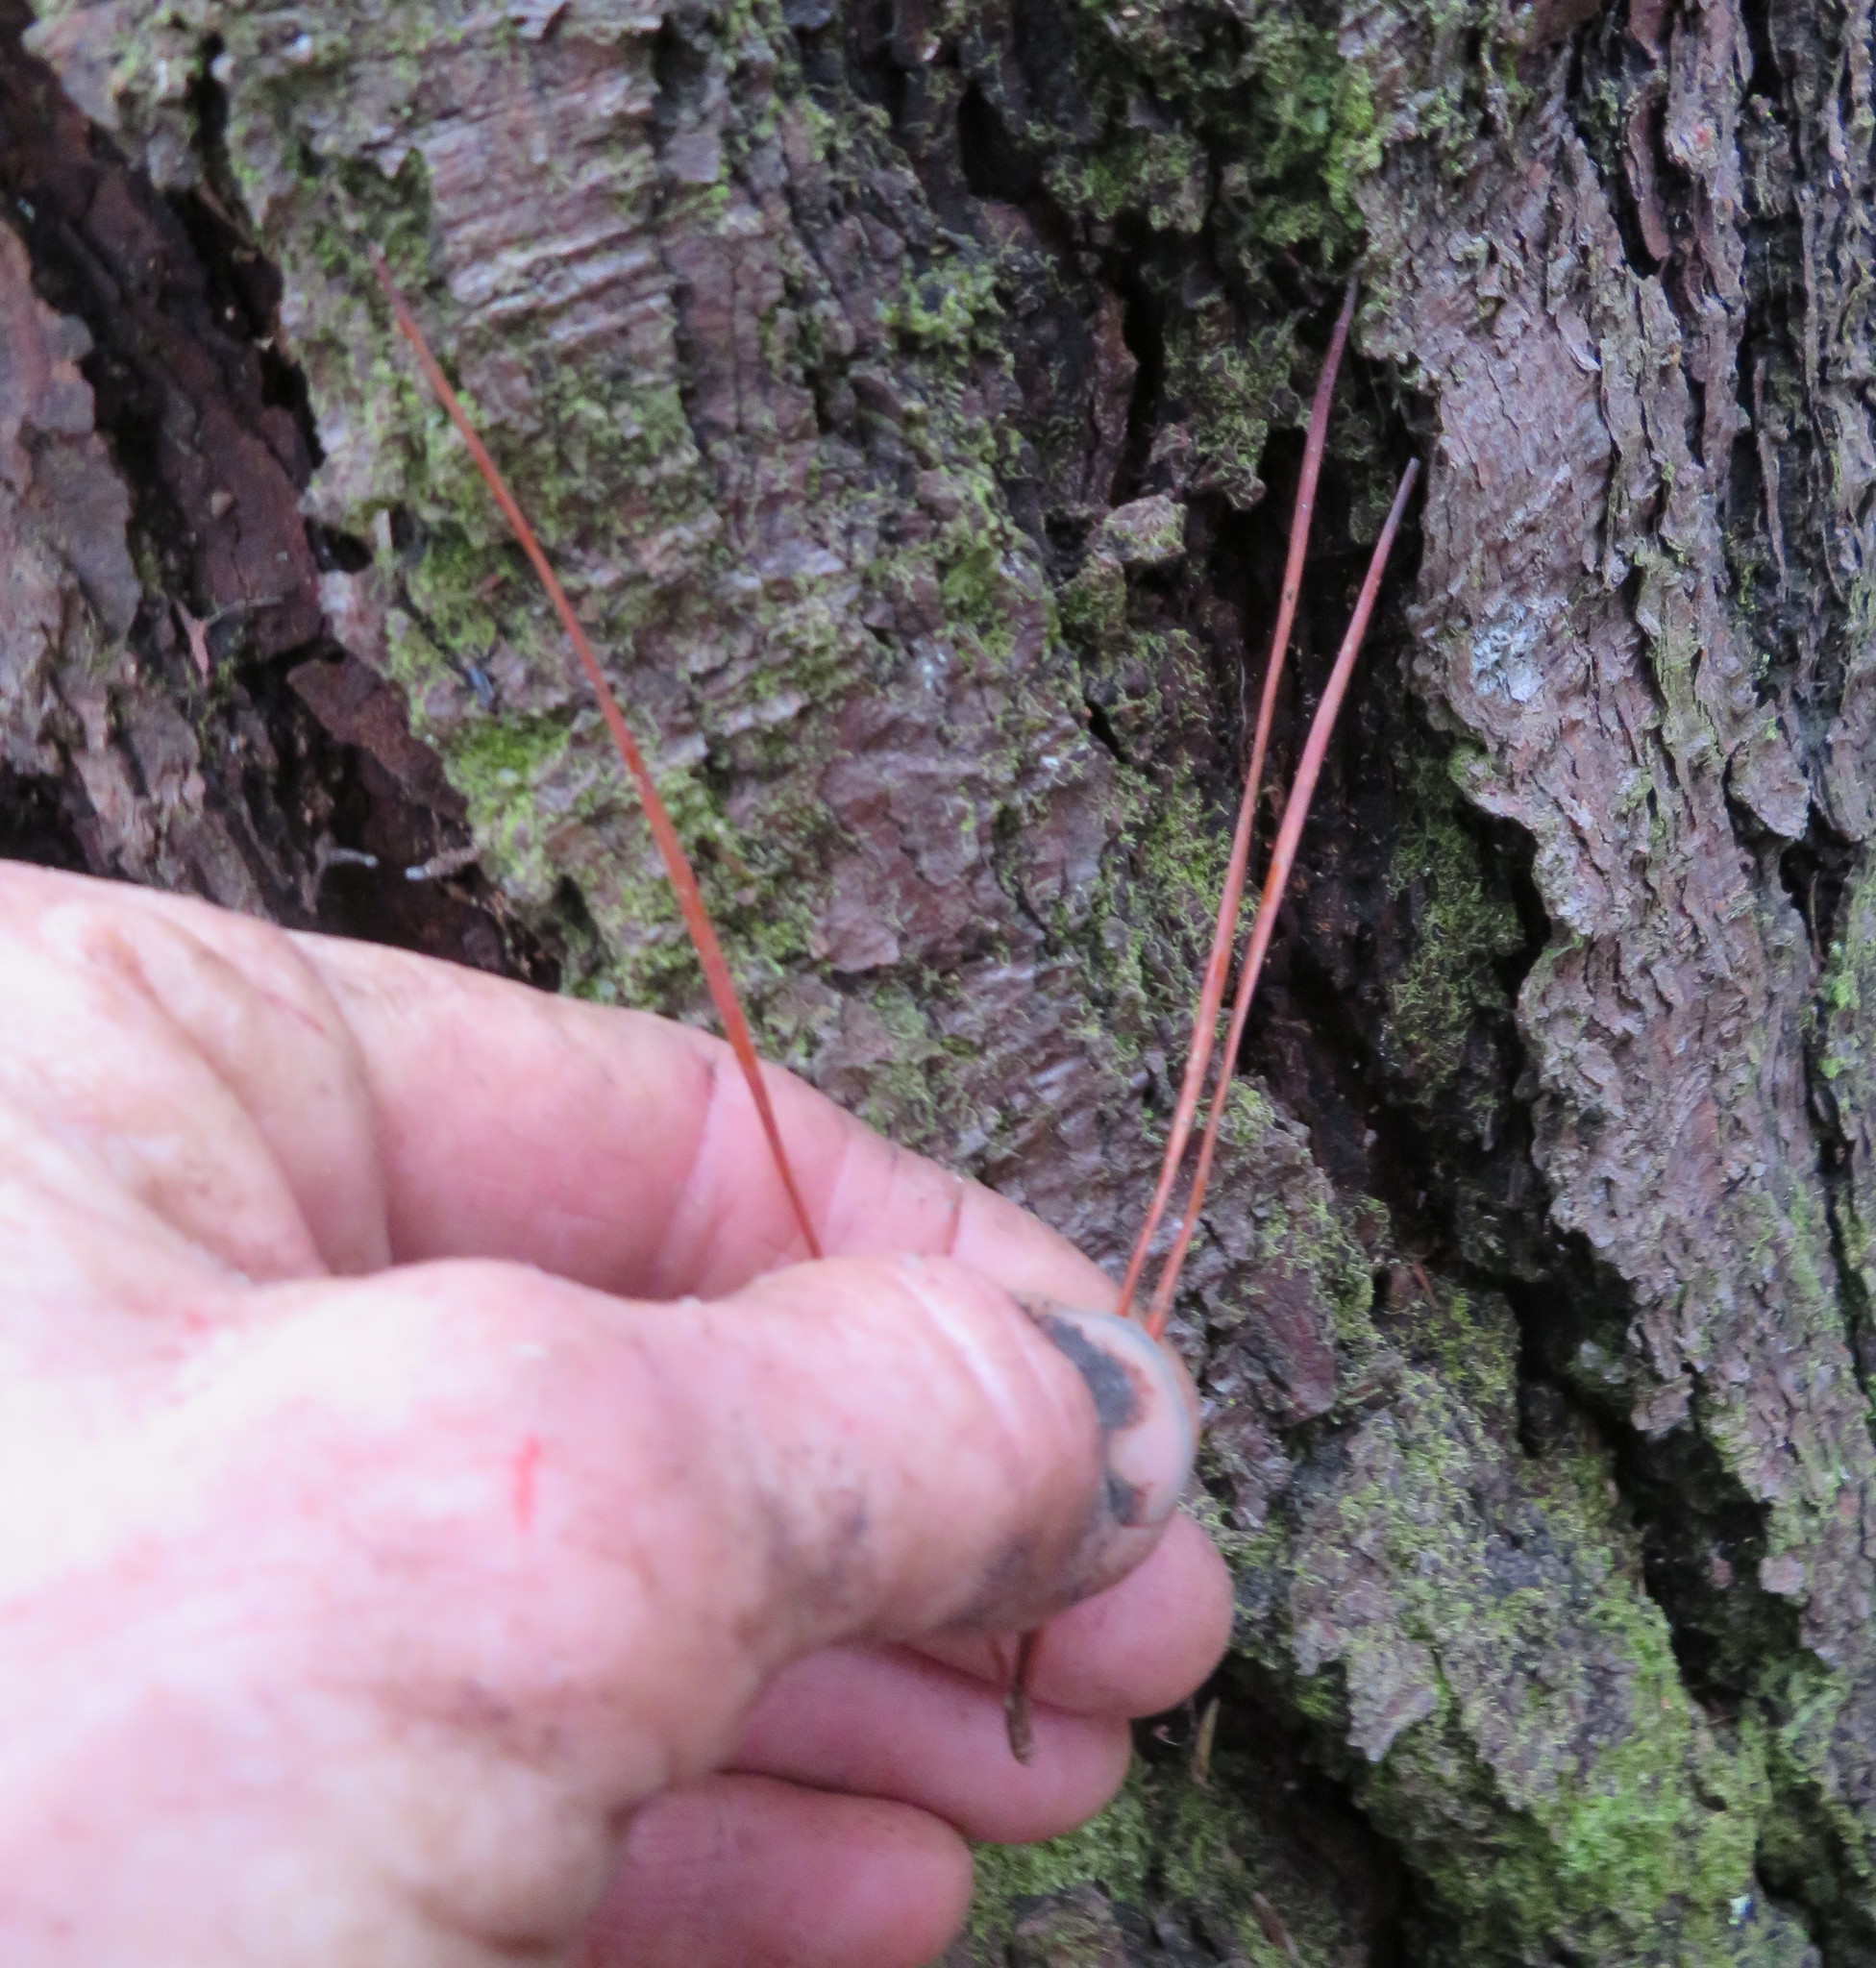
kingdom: Plantae
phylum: Tracheophyta
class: Pinopsida
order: Pinales
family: Pinaceae
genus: Pinus
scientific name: Pinus radiata
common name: Monterey pine
